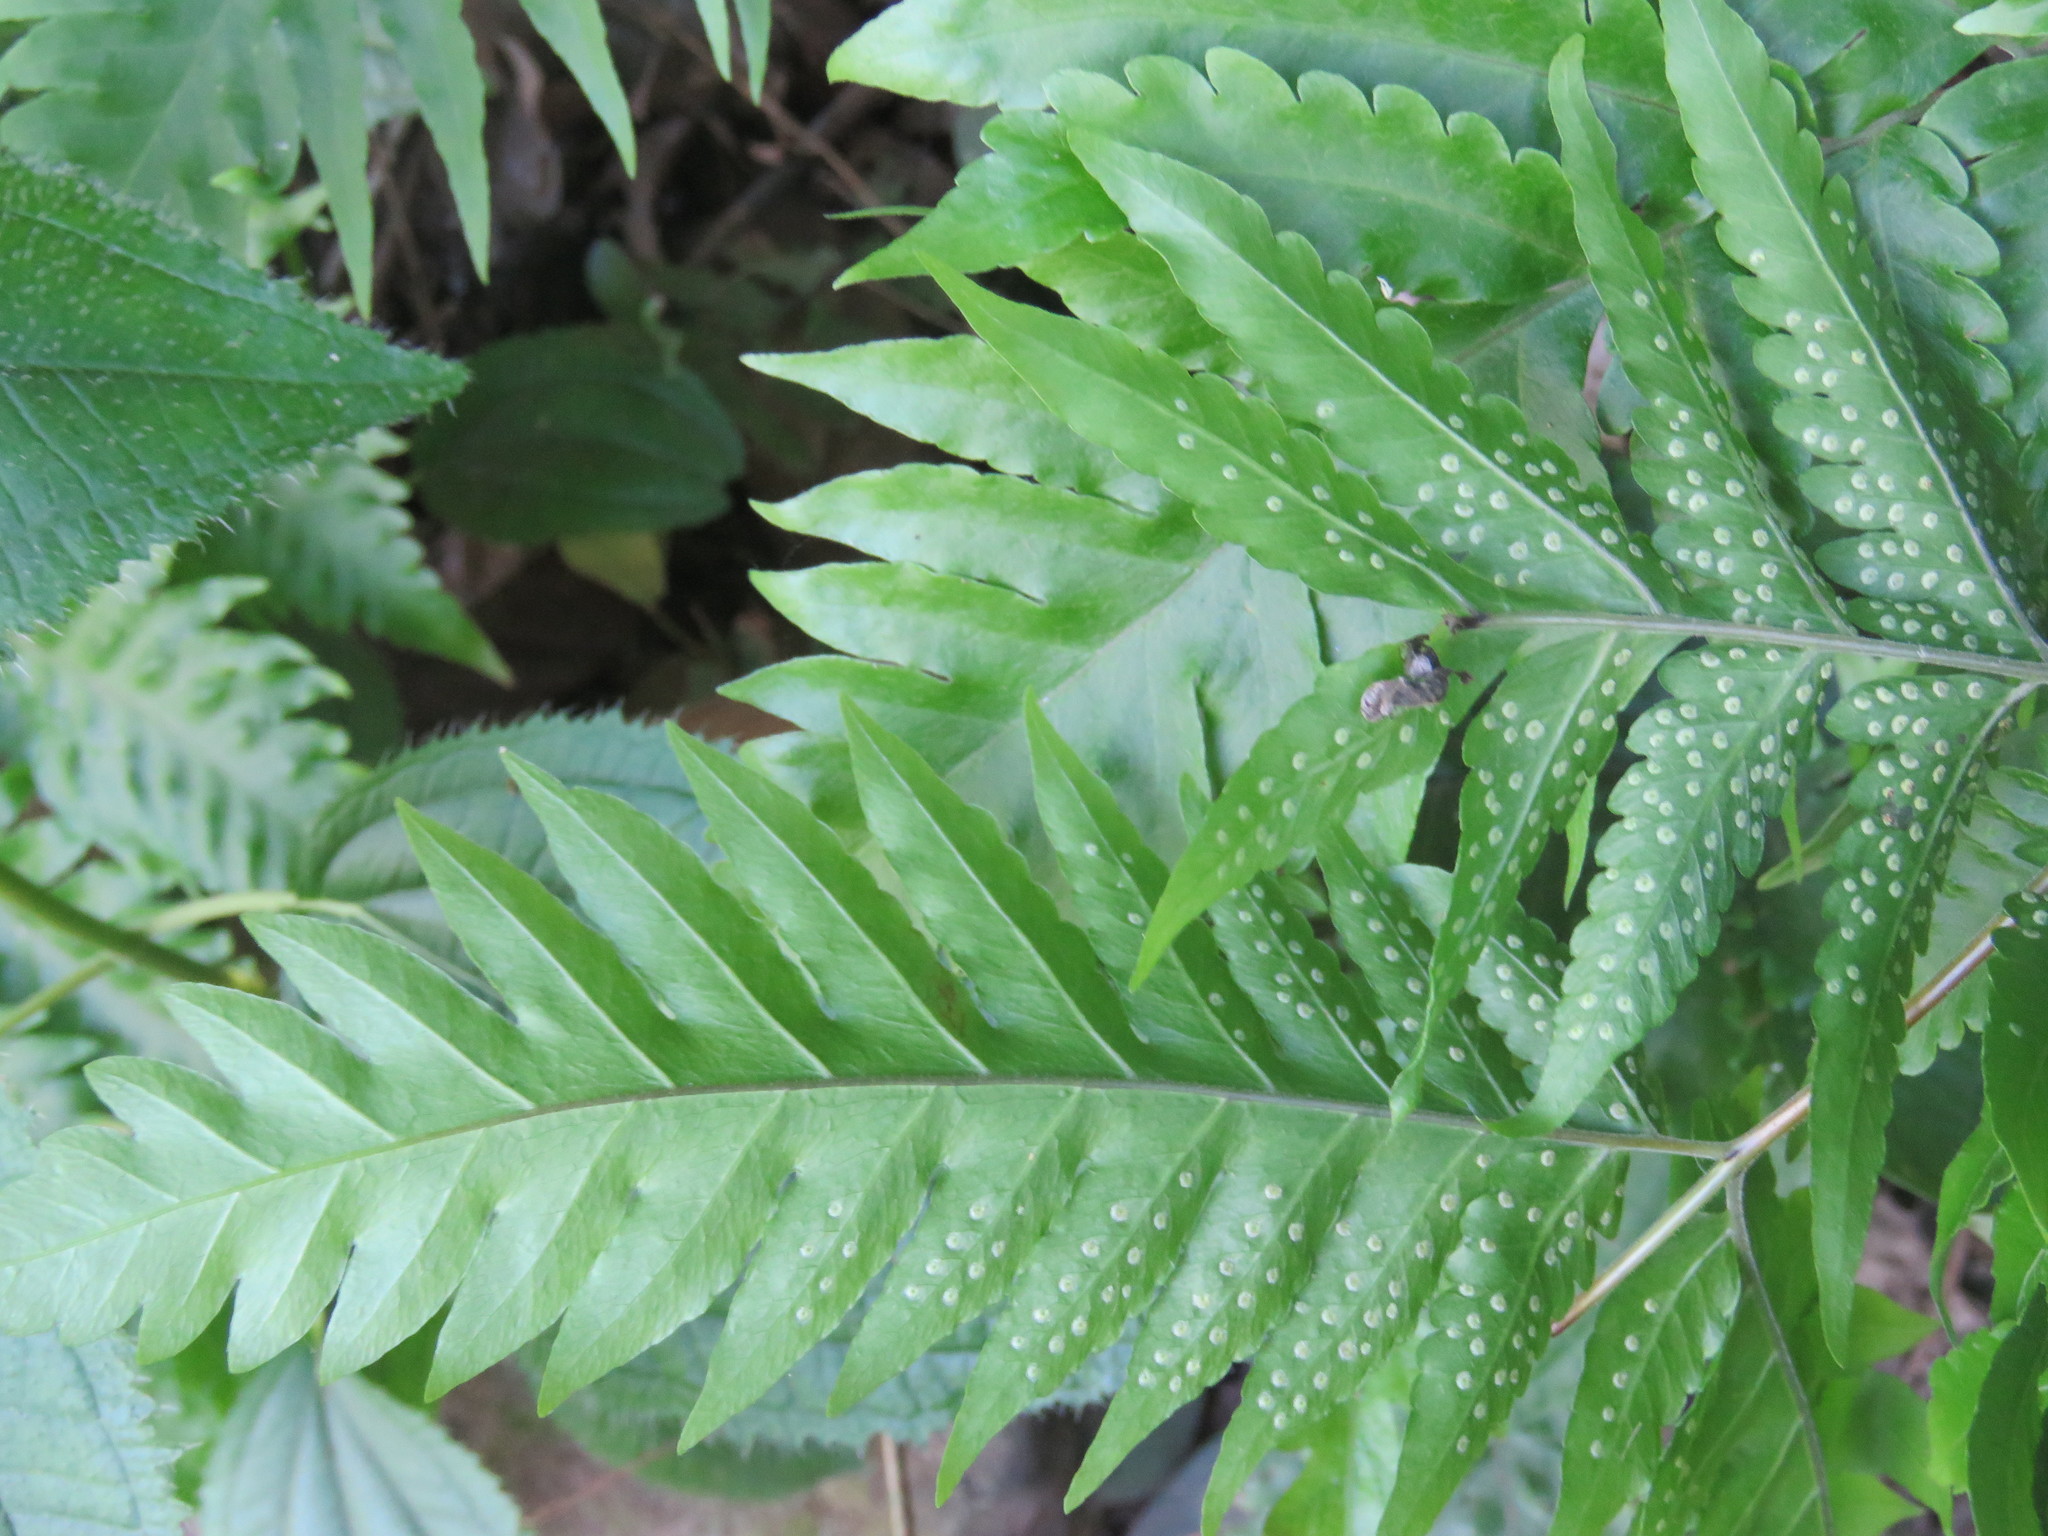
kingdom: Plantae
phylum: Tracheophyta
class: Polypodiopsida
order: Polypodiales
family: Tectariaceae
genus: Tectaria
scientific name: Tectaria mexicana
